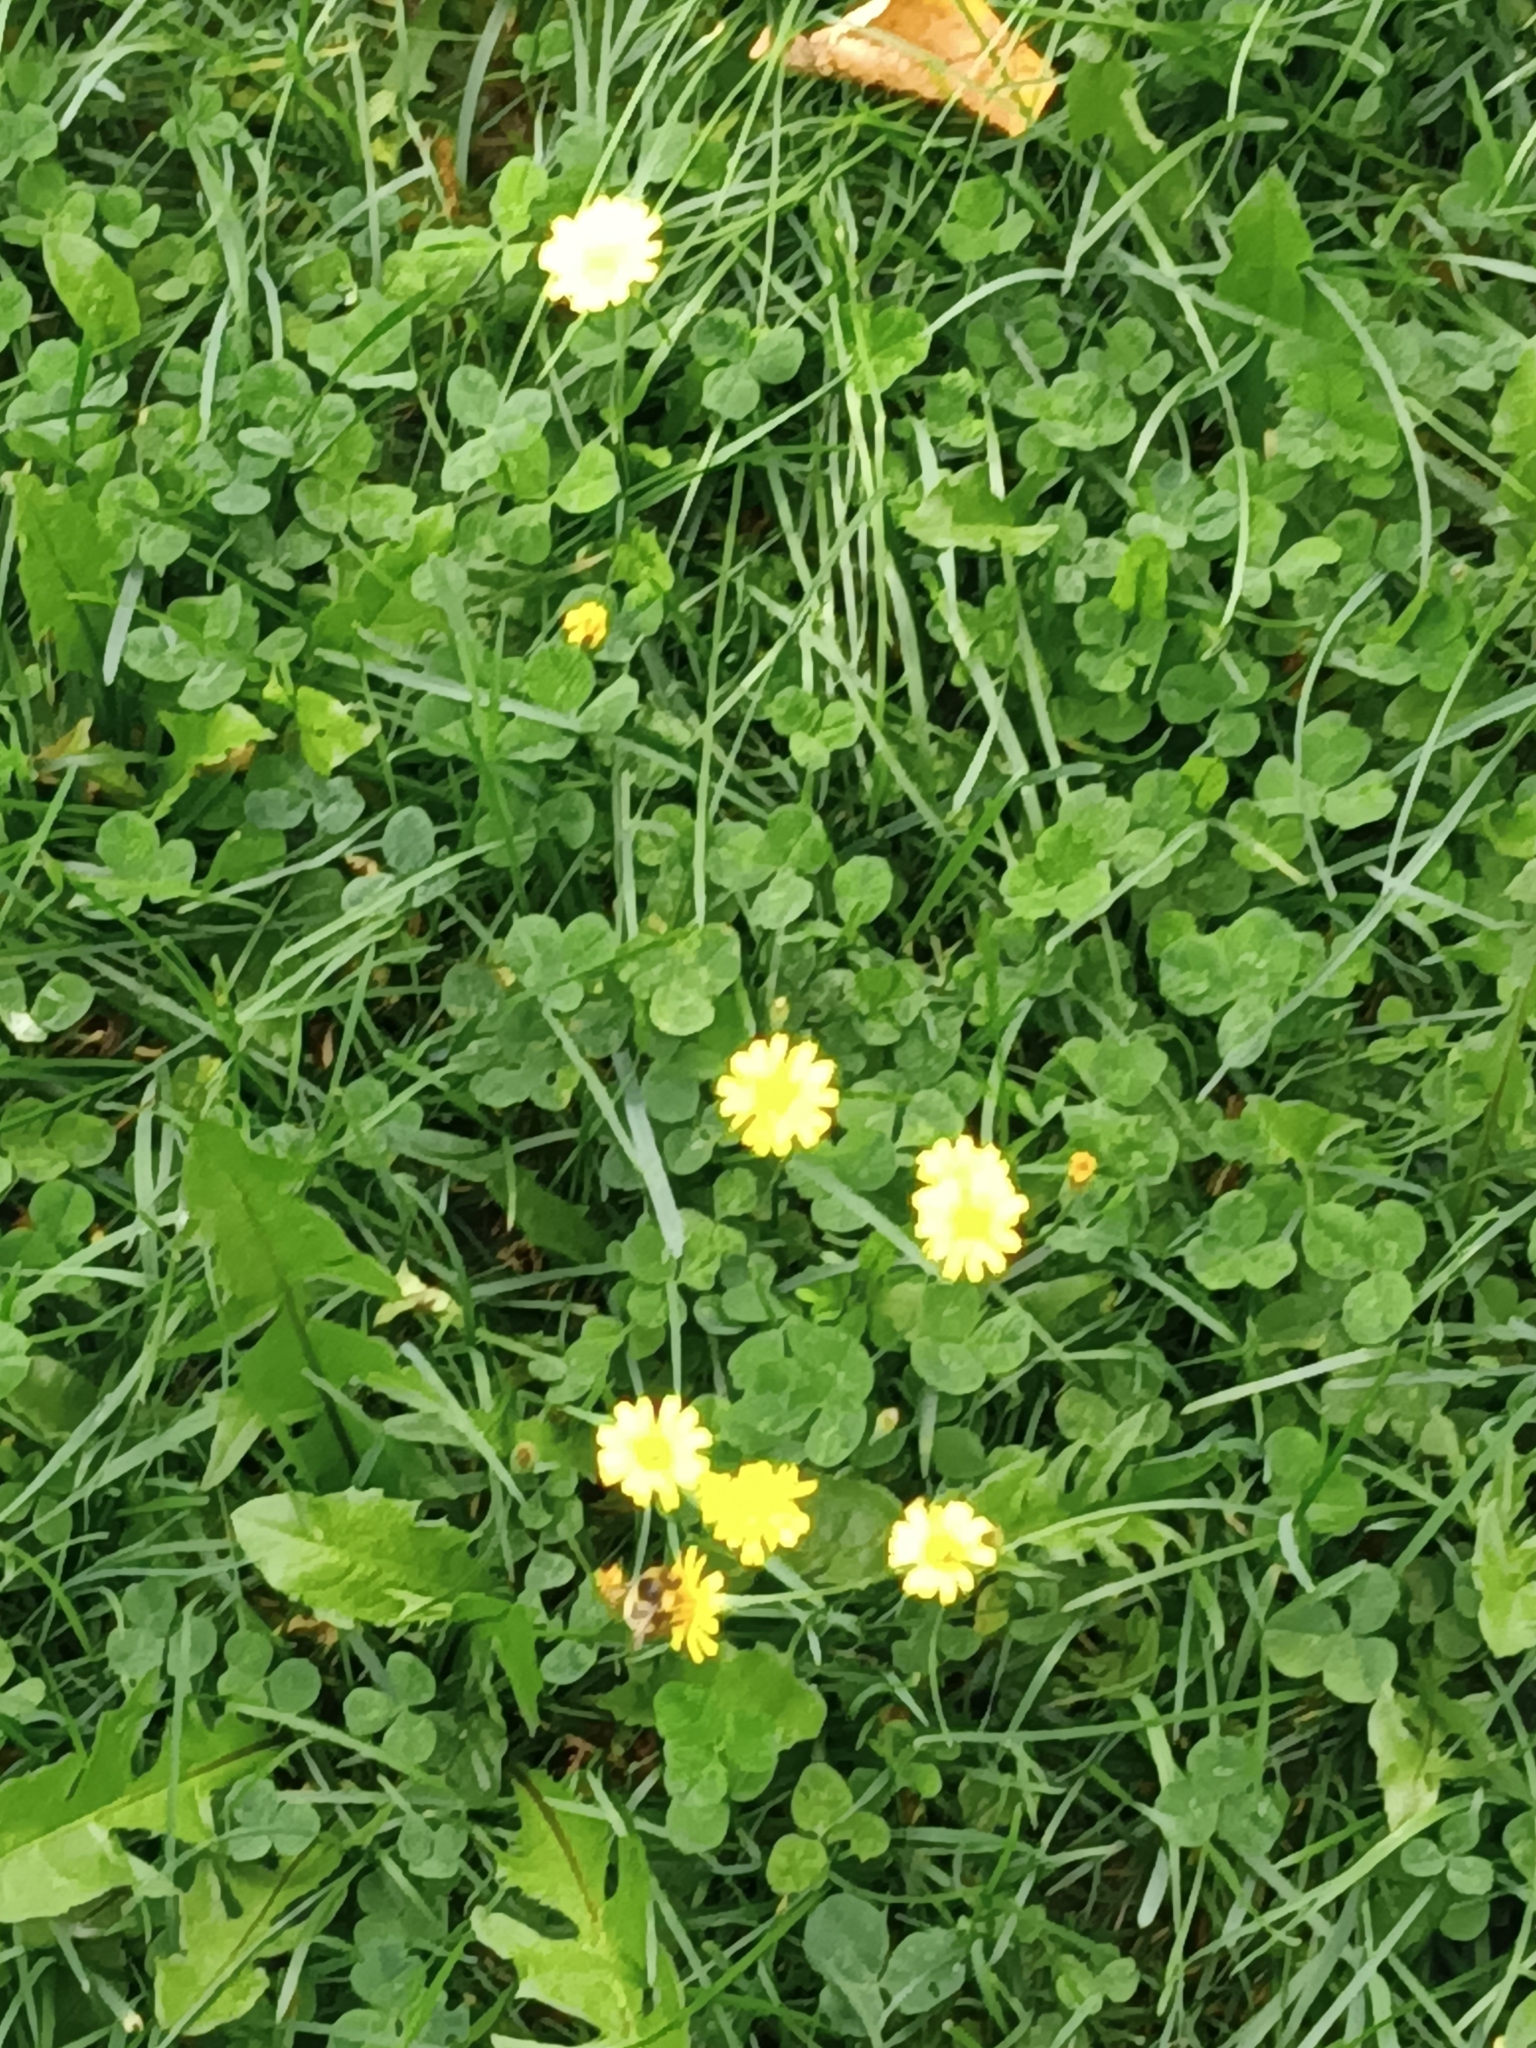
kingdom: Plantae
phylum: Tracheophyta
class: Magnoliopsida
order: Asterales
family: Asteraceae
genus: Scorzoneroides
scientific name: Scorzoneroides autumnalis
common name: Autumn hawkbit
